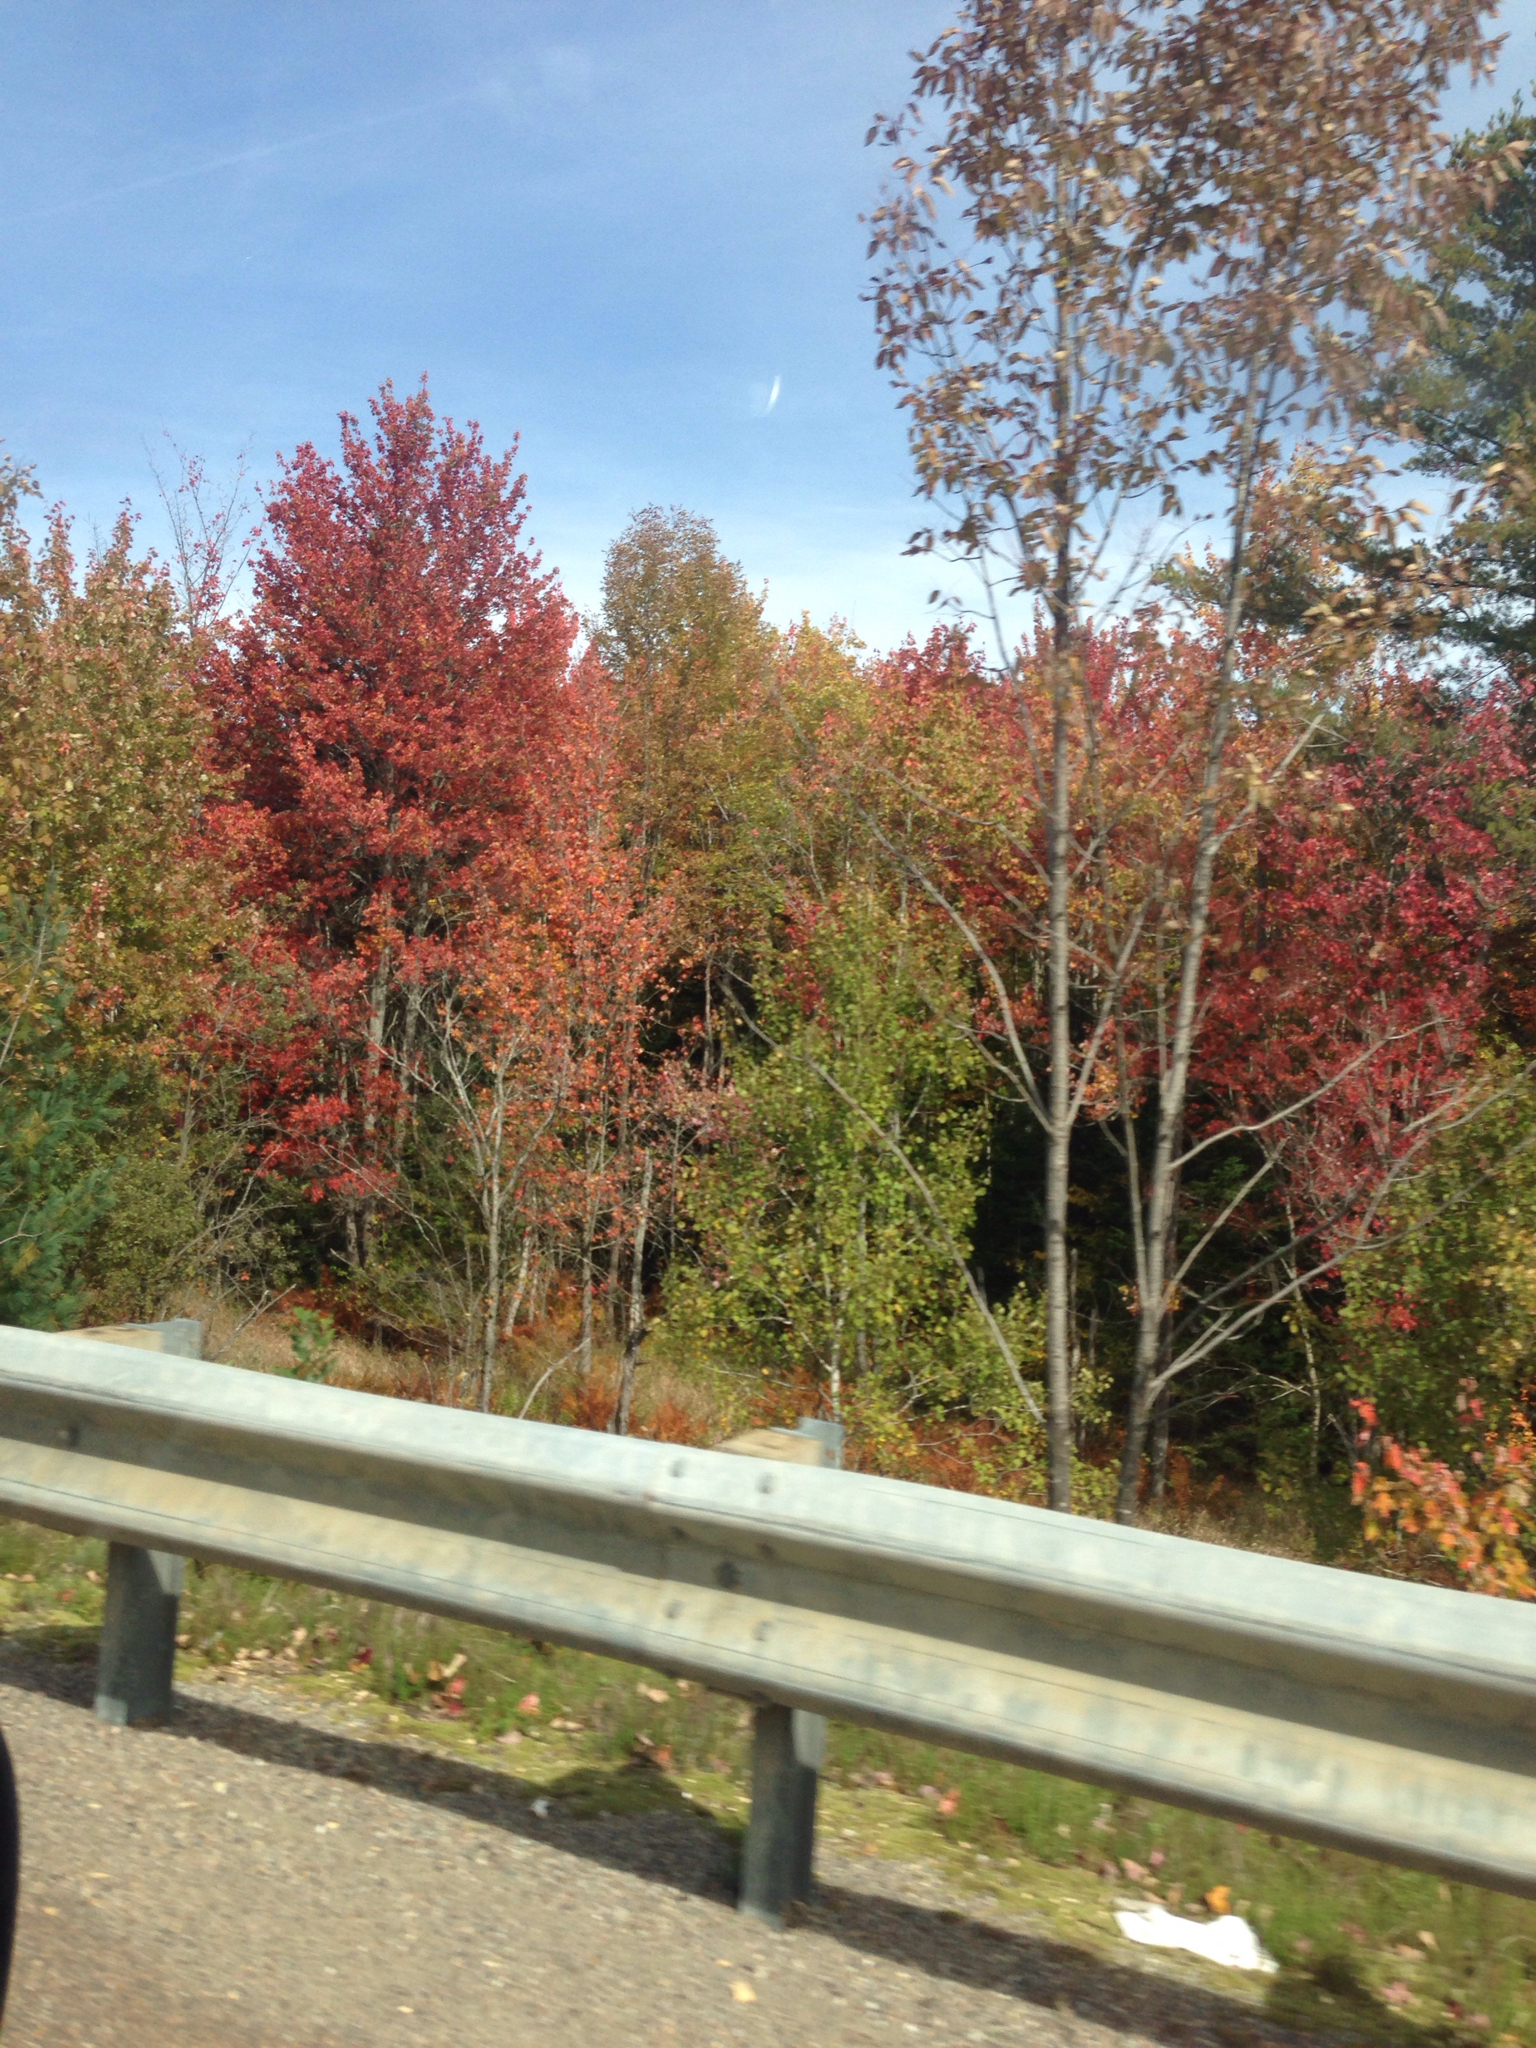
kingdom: Plantae
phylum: Tracheophyta
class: Magnoliopsida
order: Lamiales
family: Oleaceae
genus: Fraxinus
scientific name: Fraxinus americana
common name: White ash
